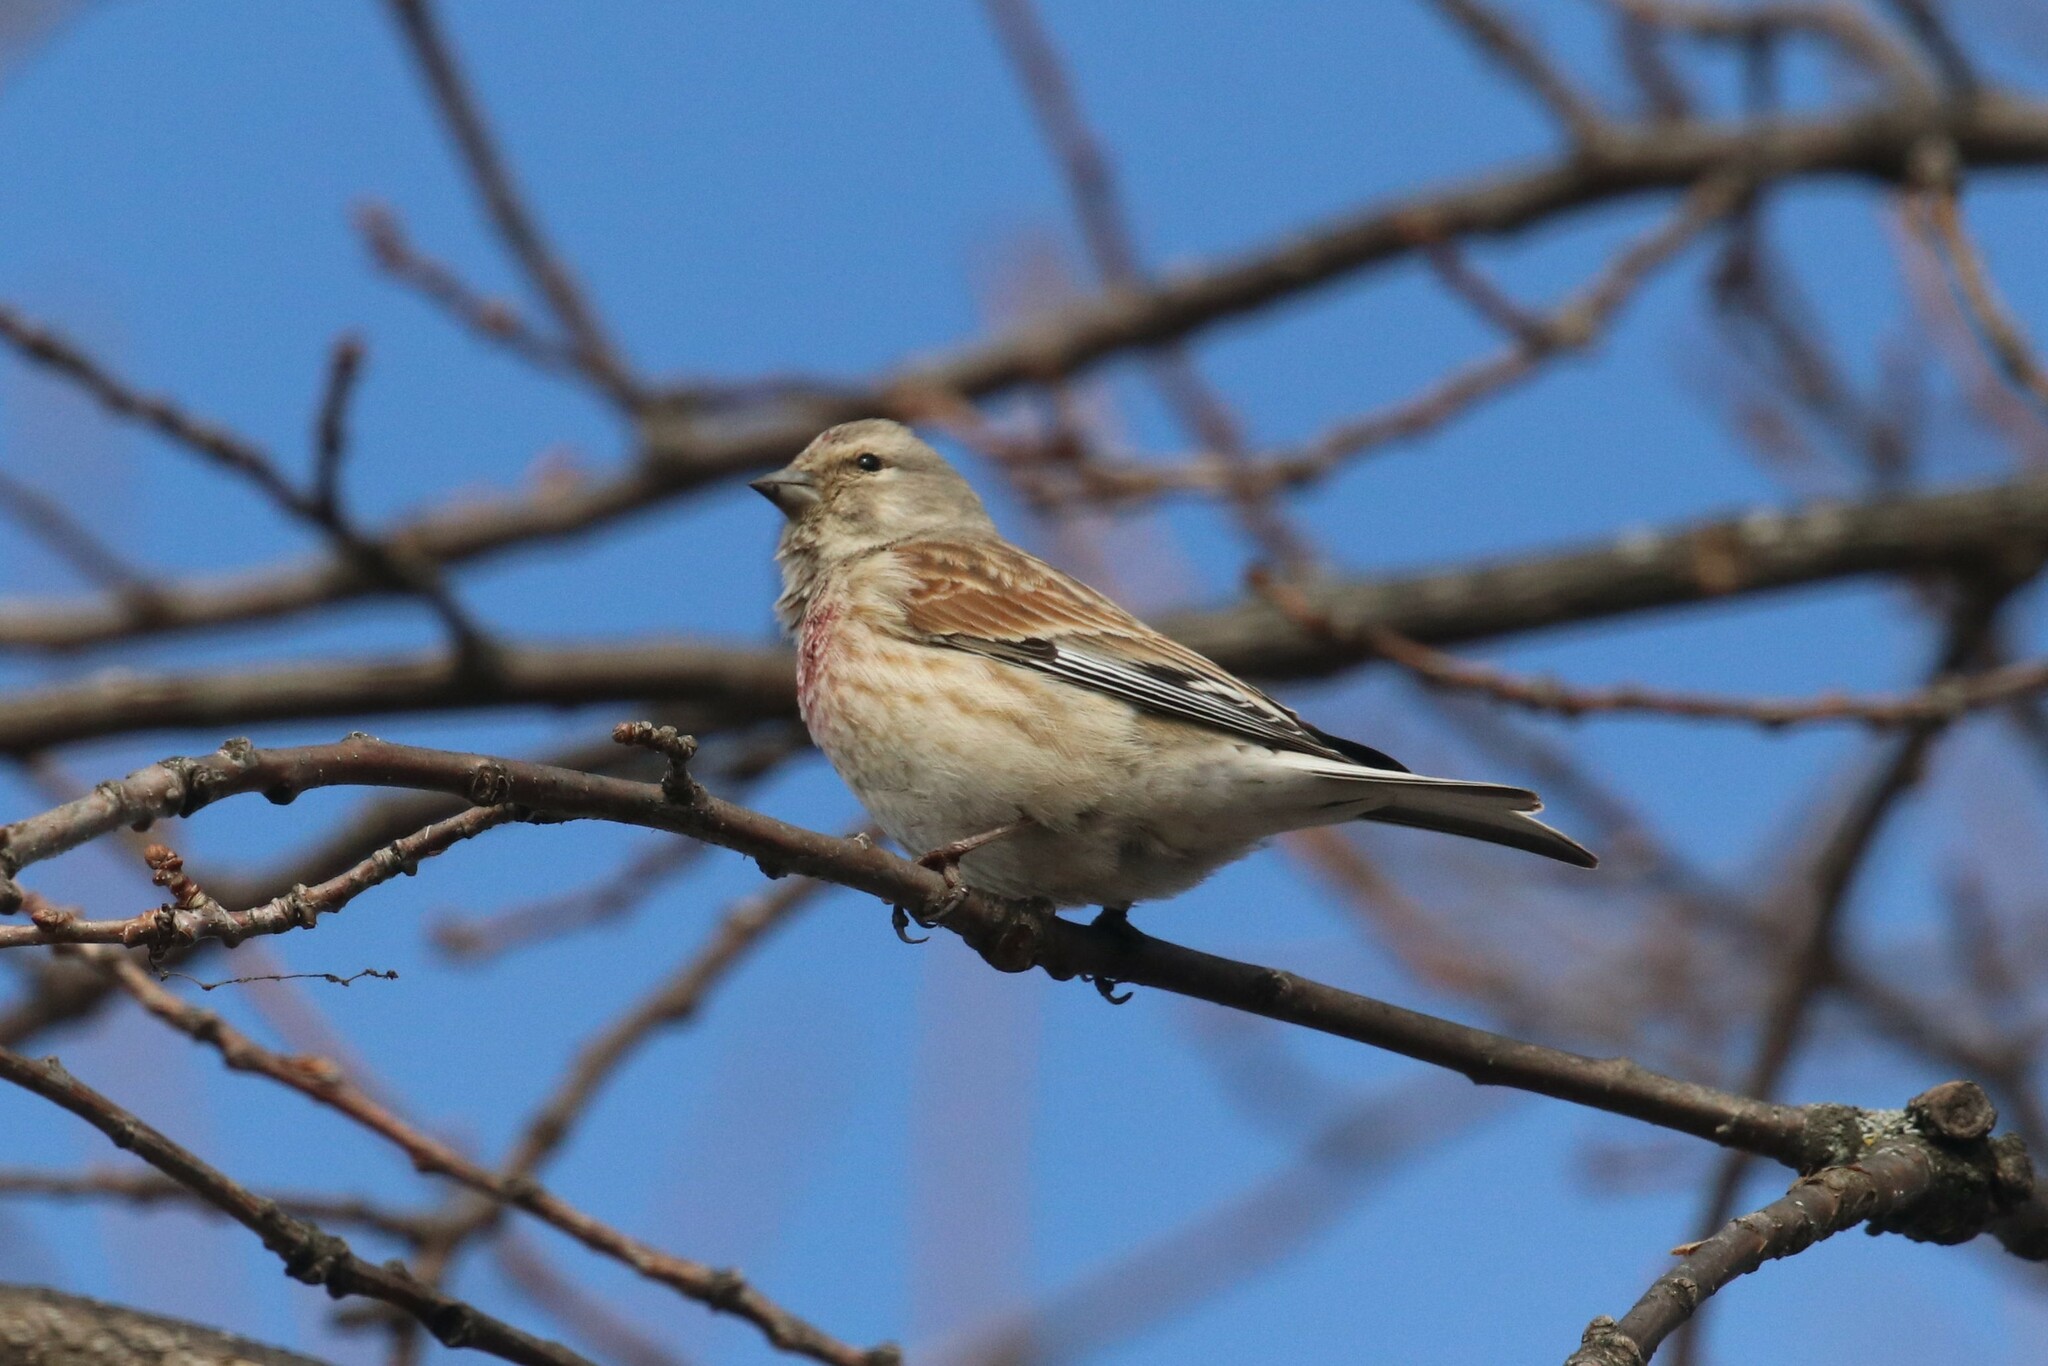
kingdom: Animalia
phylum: Chordata
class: Aves
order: Passeriformes
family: Fringillidae
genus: Linaria
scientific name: Linaria cannabina
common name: Common linnet
